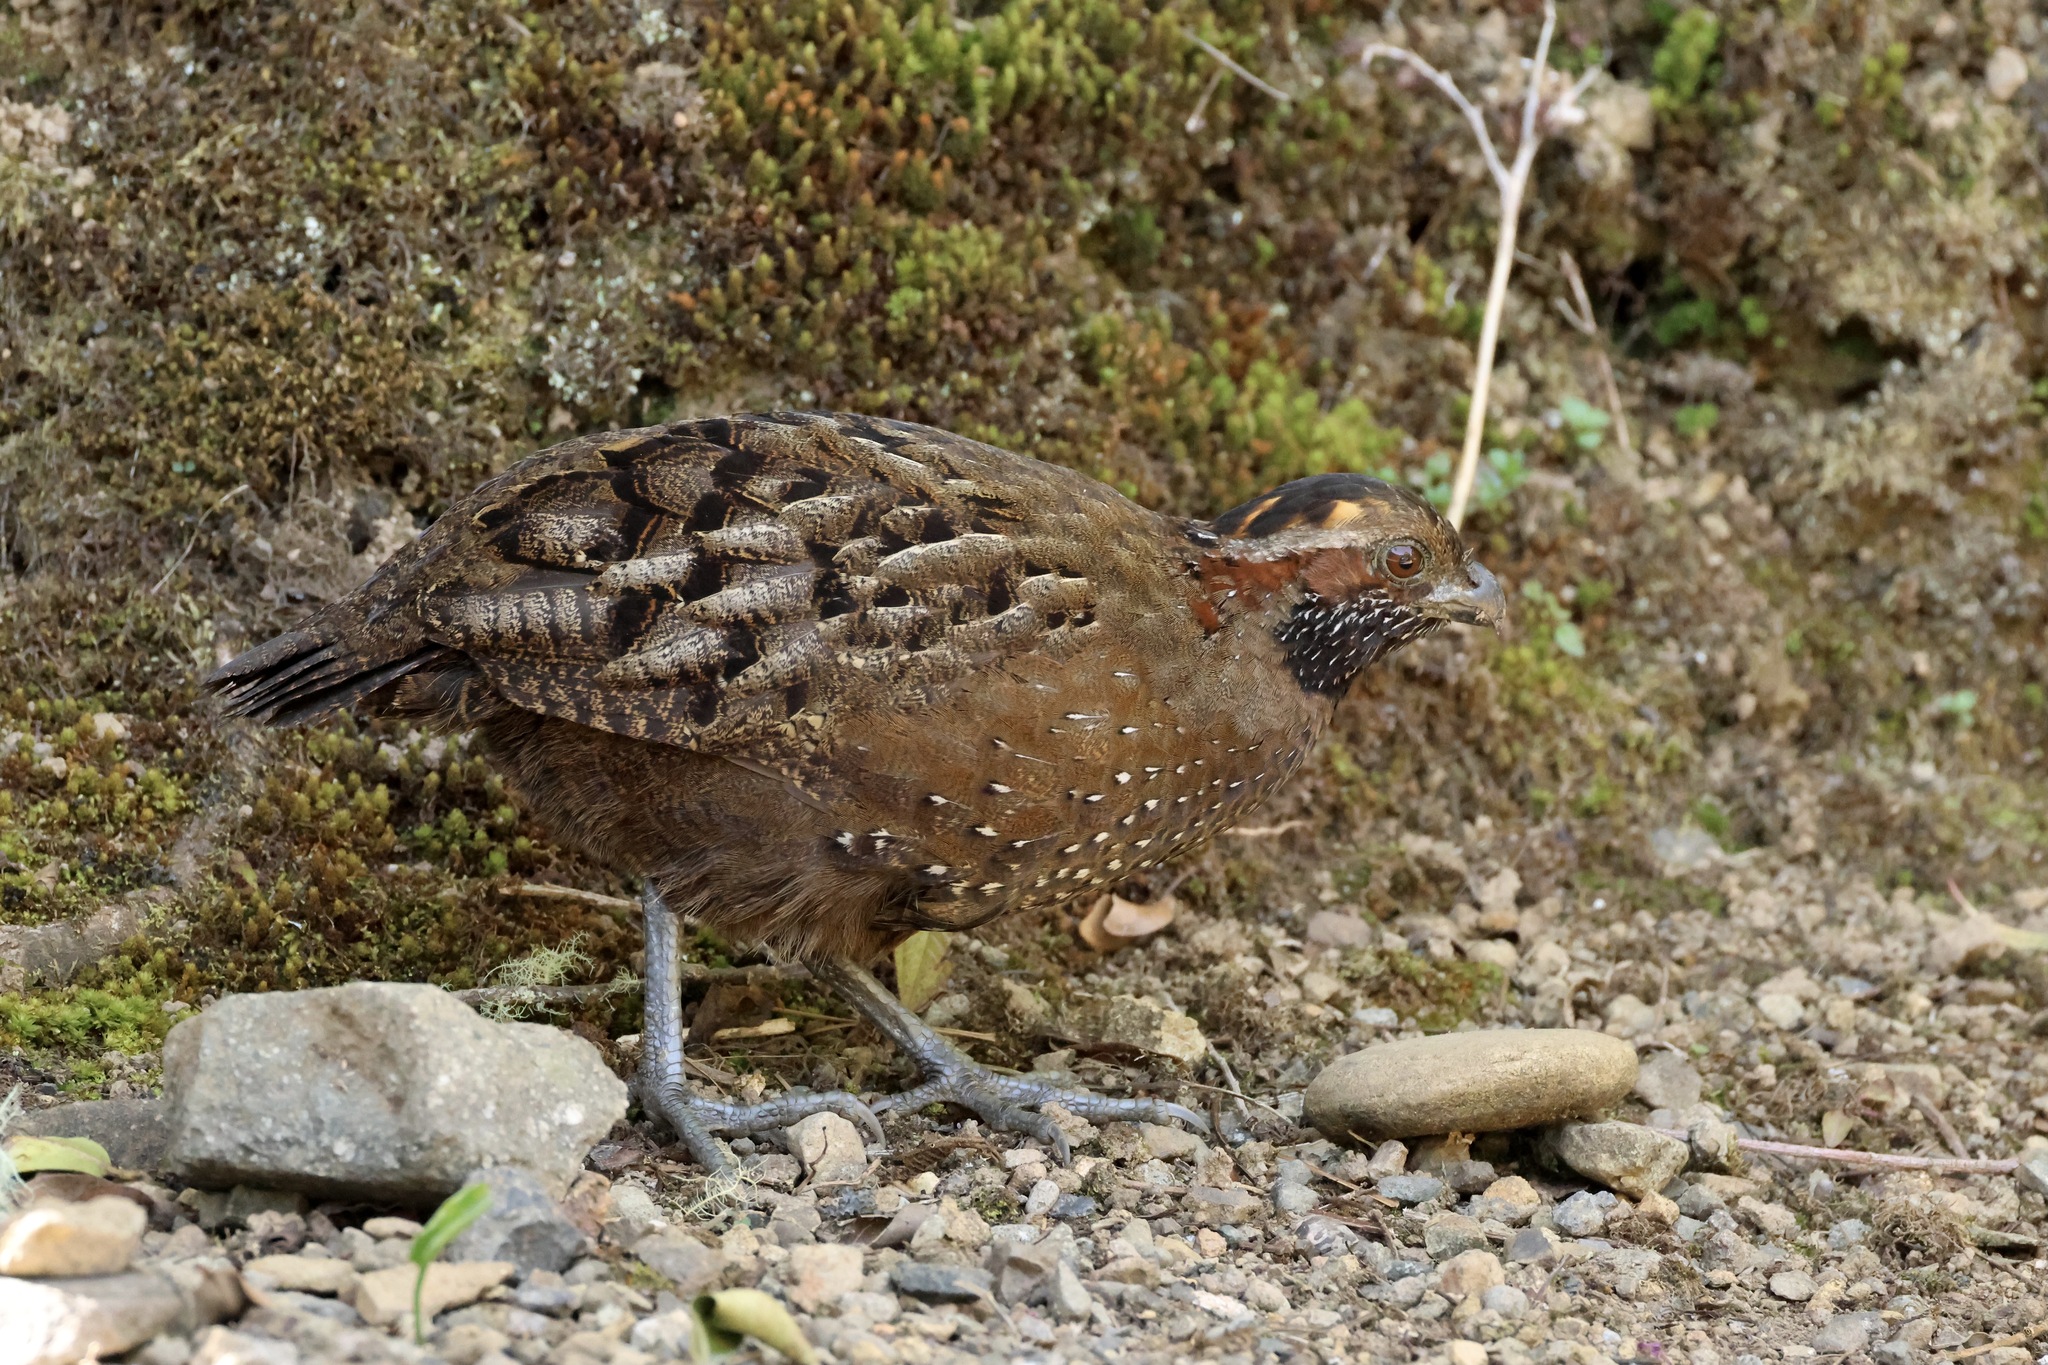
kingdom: Animalia
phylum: Chordata
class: Aves
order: Galliformes
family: Odontophoridae
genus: Odontophorus
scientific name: Odontophorus guttatus
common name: Spotted wood-quail
